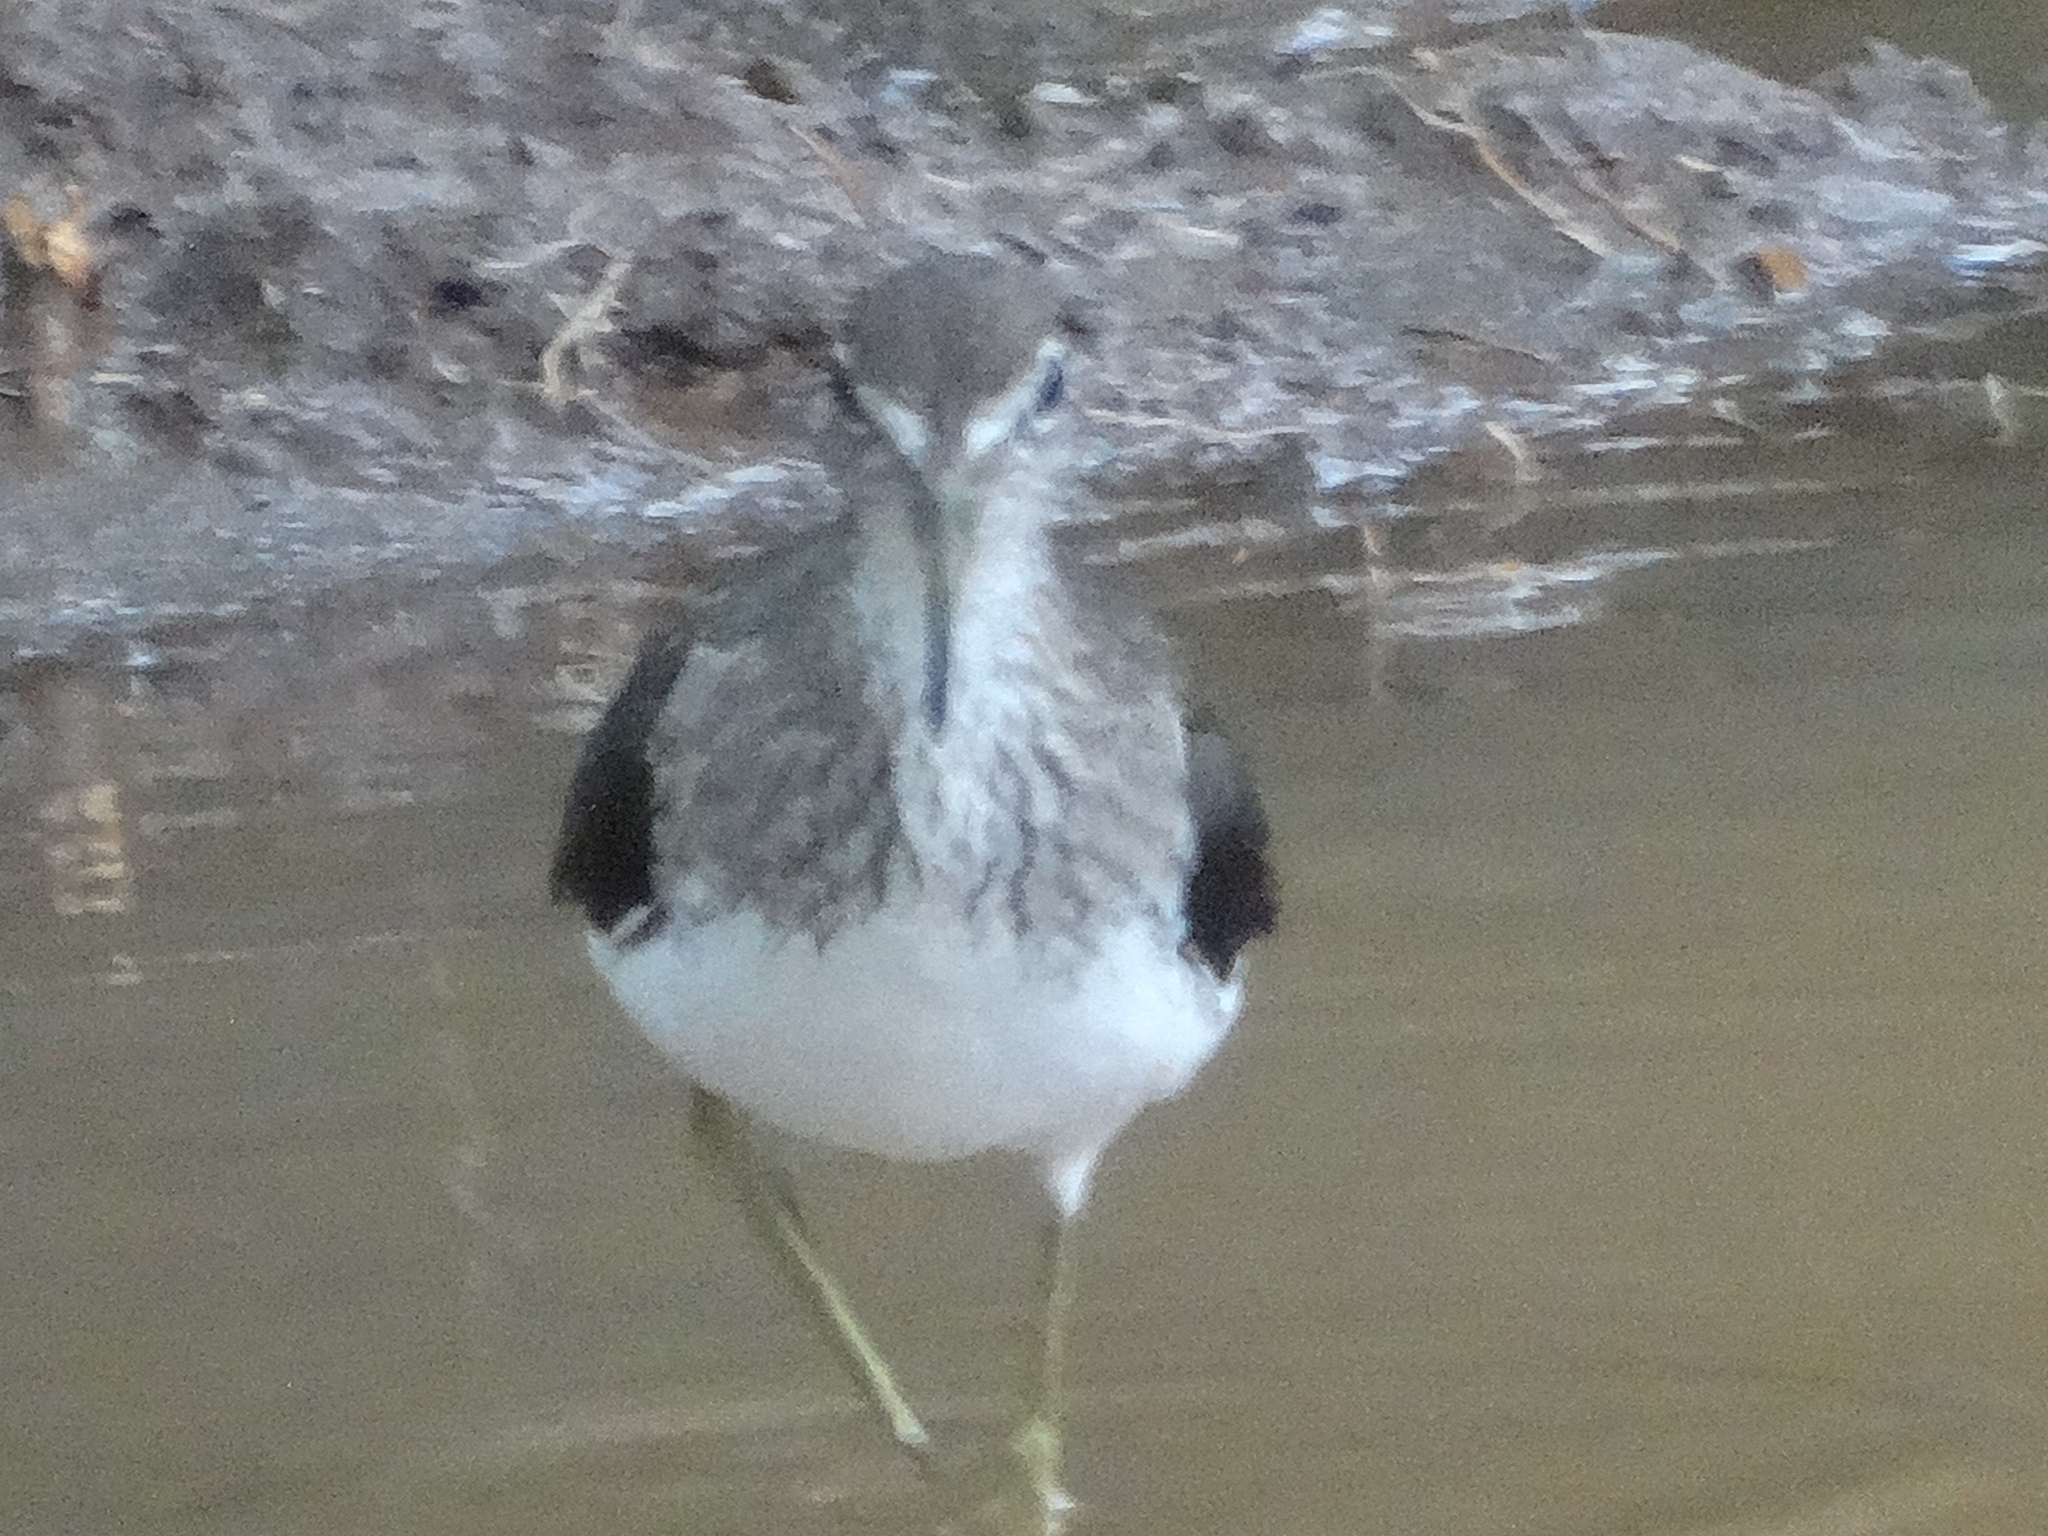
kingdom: Animalia
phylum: Chordata
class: Aves
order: Charadriiformes
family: Scolopacidae
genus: Tringa
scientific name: Tringa solitaria
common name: Solitary sandpiper
